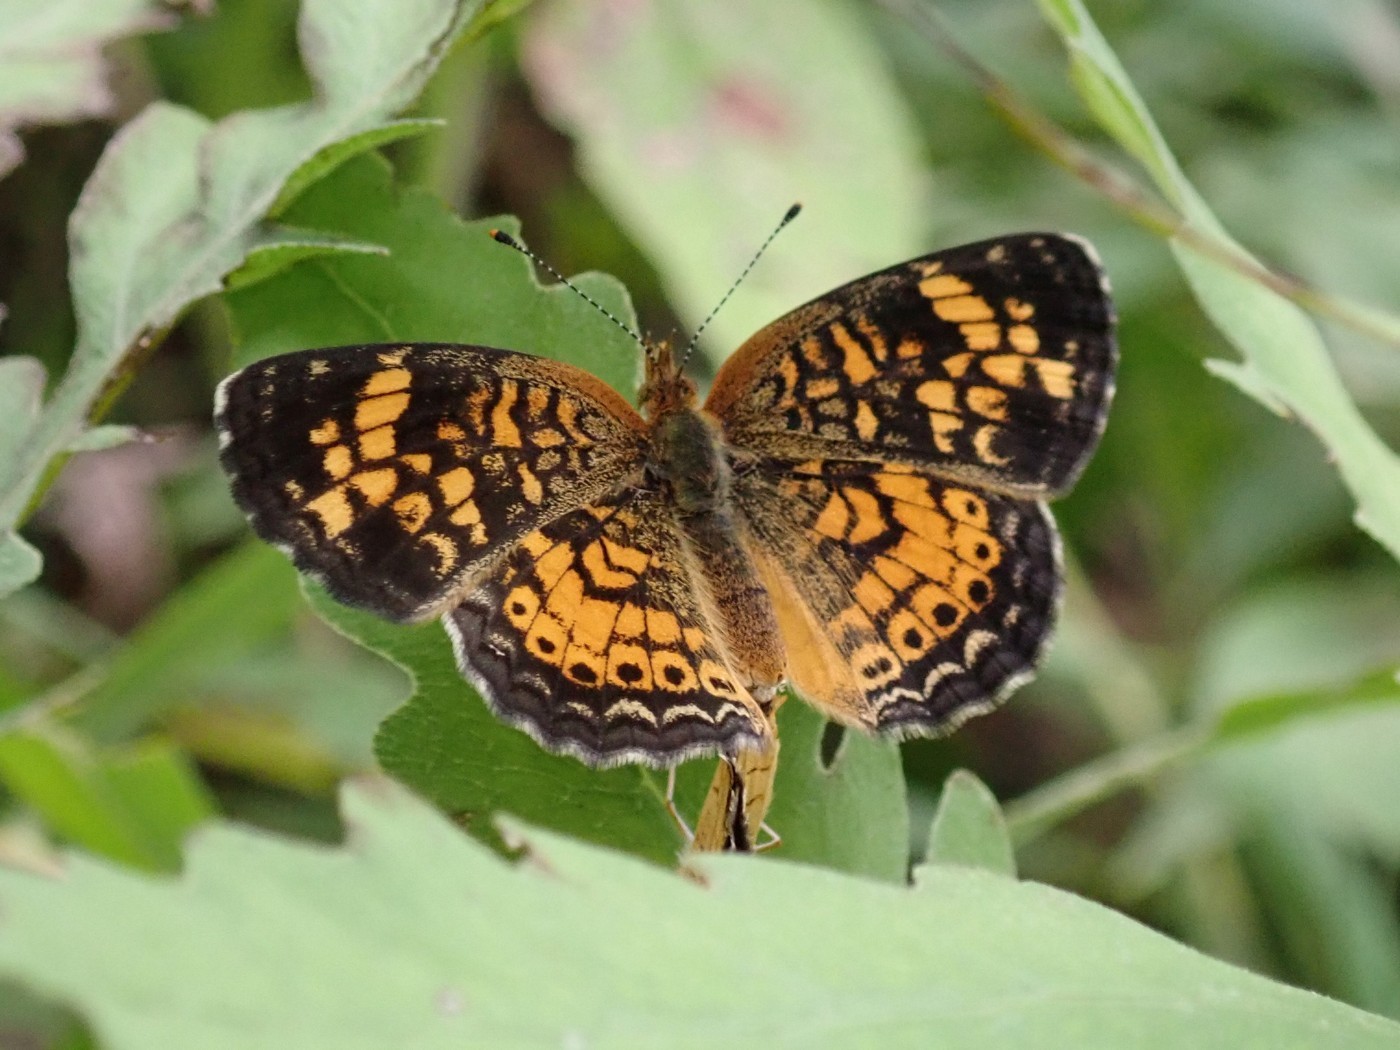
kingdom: Animalia
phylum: Arthropoda
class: Insecta
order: Lepidoptera
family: Nymphalidae
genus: Phyciodes
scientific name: Phyciodes tharos
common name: Pearl crescent
